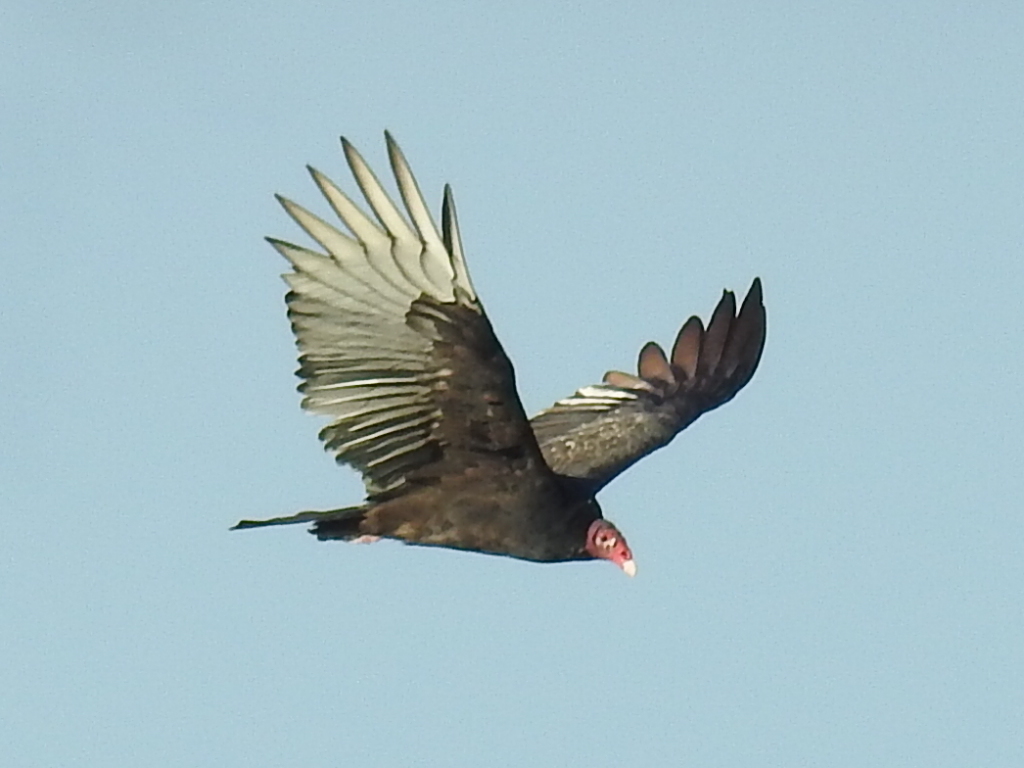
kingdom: Animalia
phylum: Chordata
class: Aves
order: Accipitriformes
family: Cathartidae
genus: Cathartes
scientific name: Cathartes aura
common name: Turkey vulture
